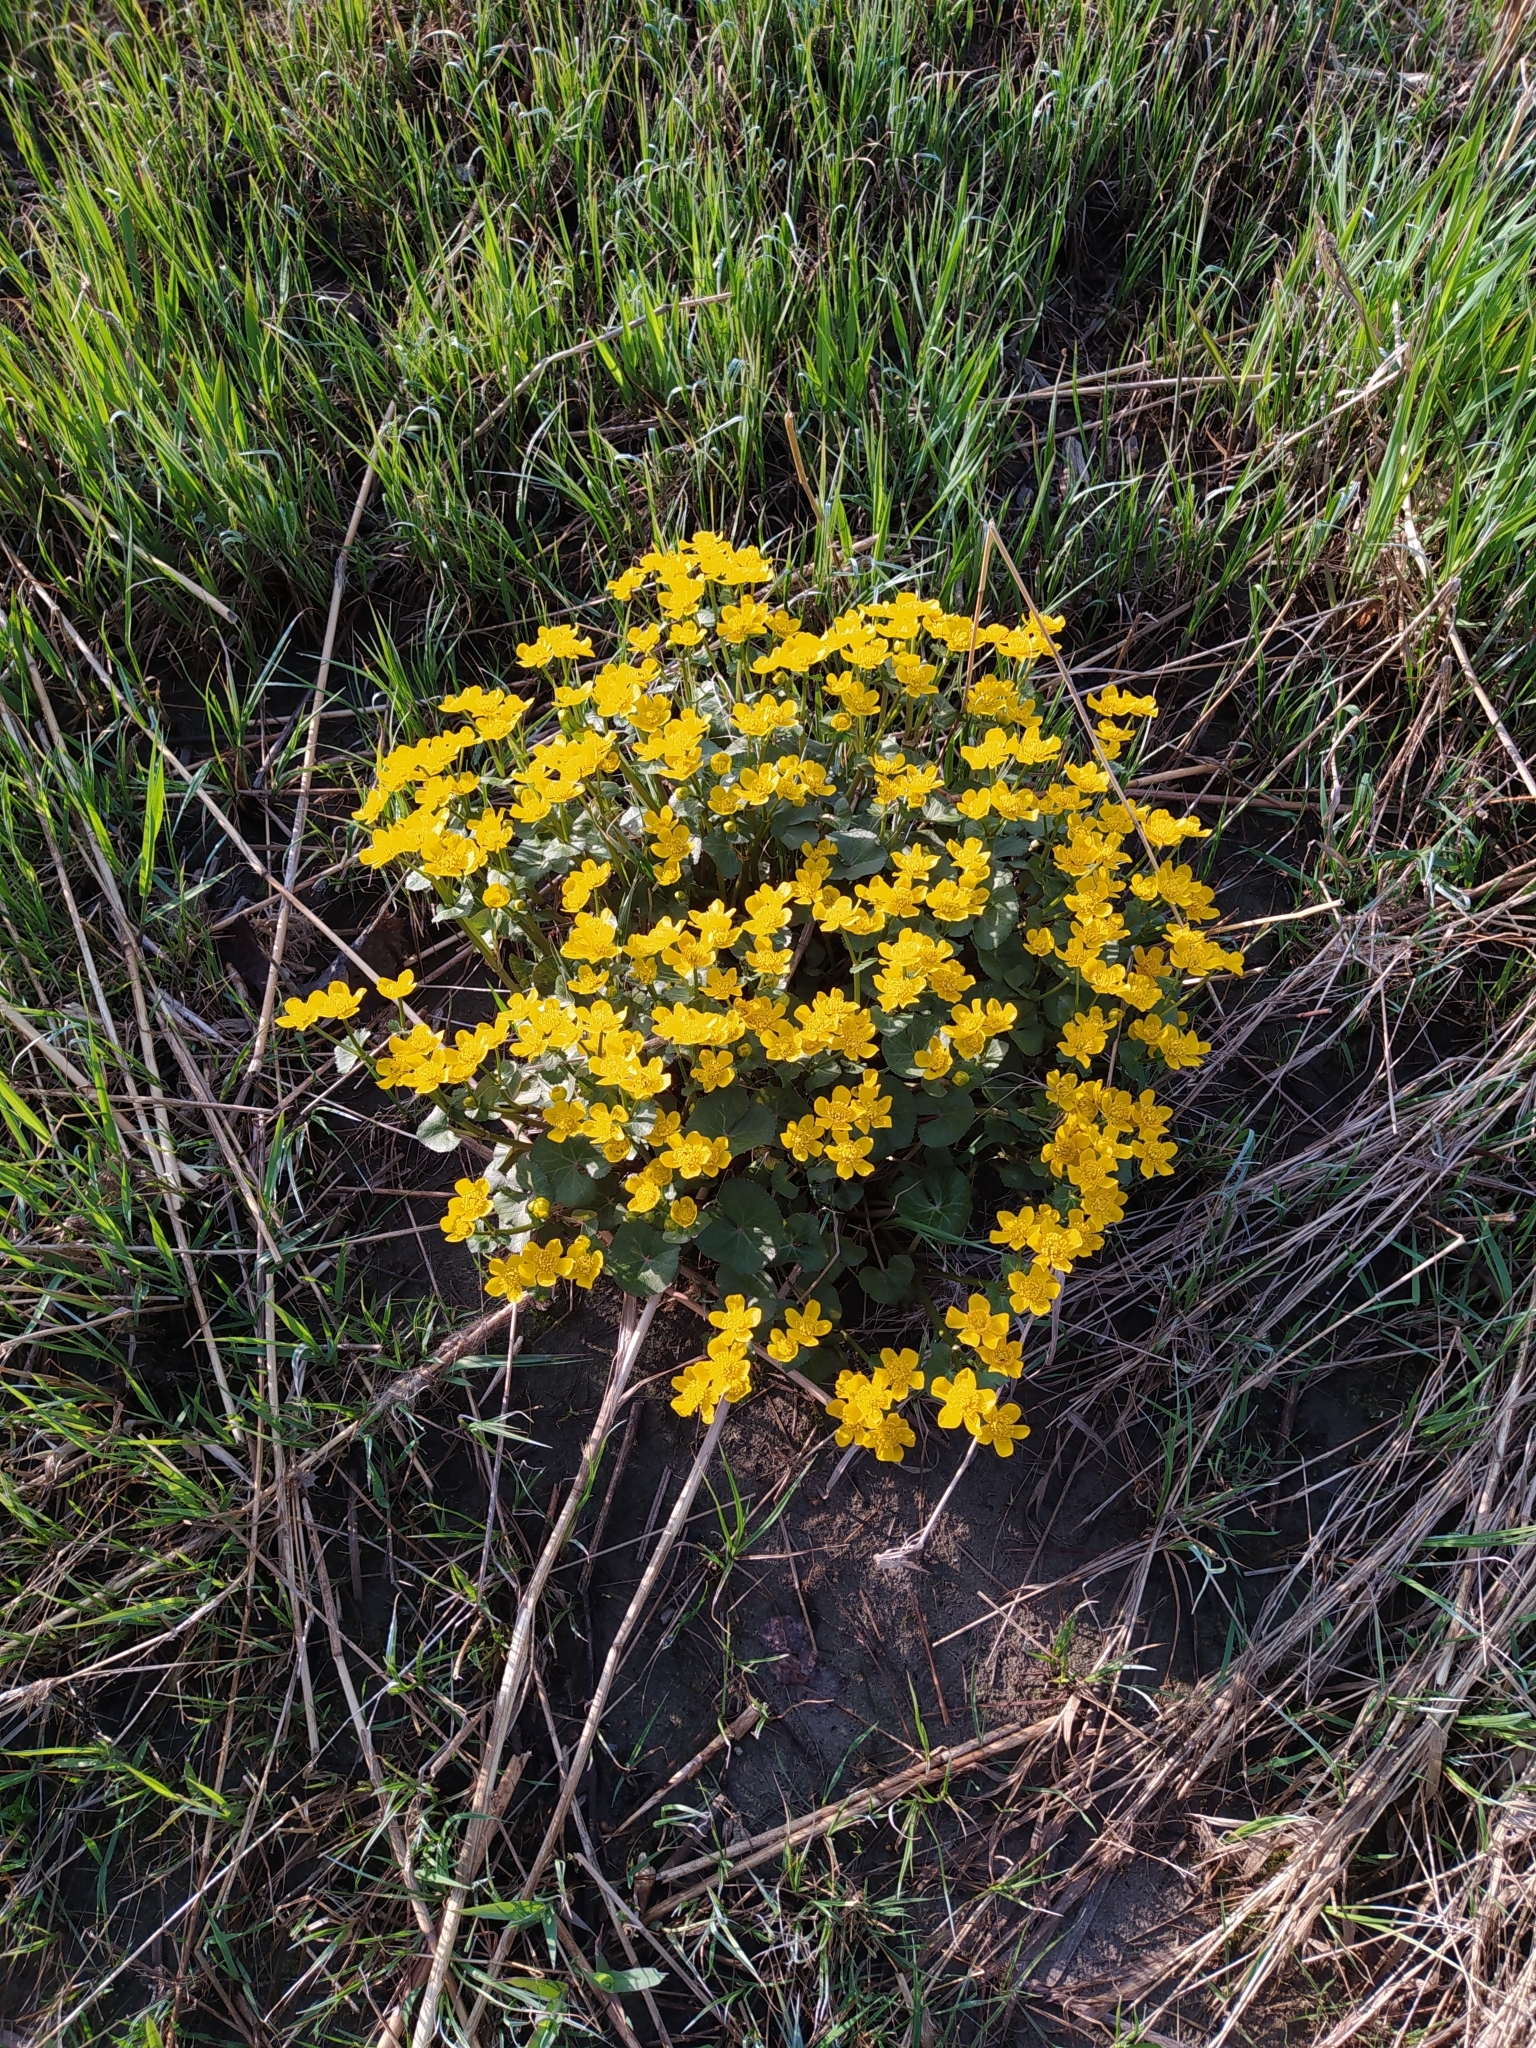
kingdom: Plantae
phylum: Tracheophyta
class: Magnoliopsida
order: Ranunculales
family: Ranunculaceae
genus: Caltha
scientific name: Caltha palustris
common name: Marsh marigold
